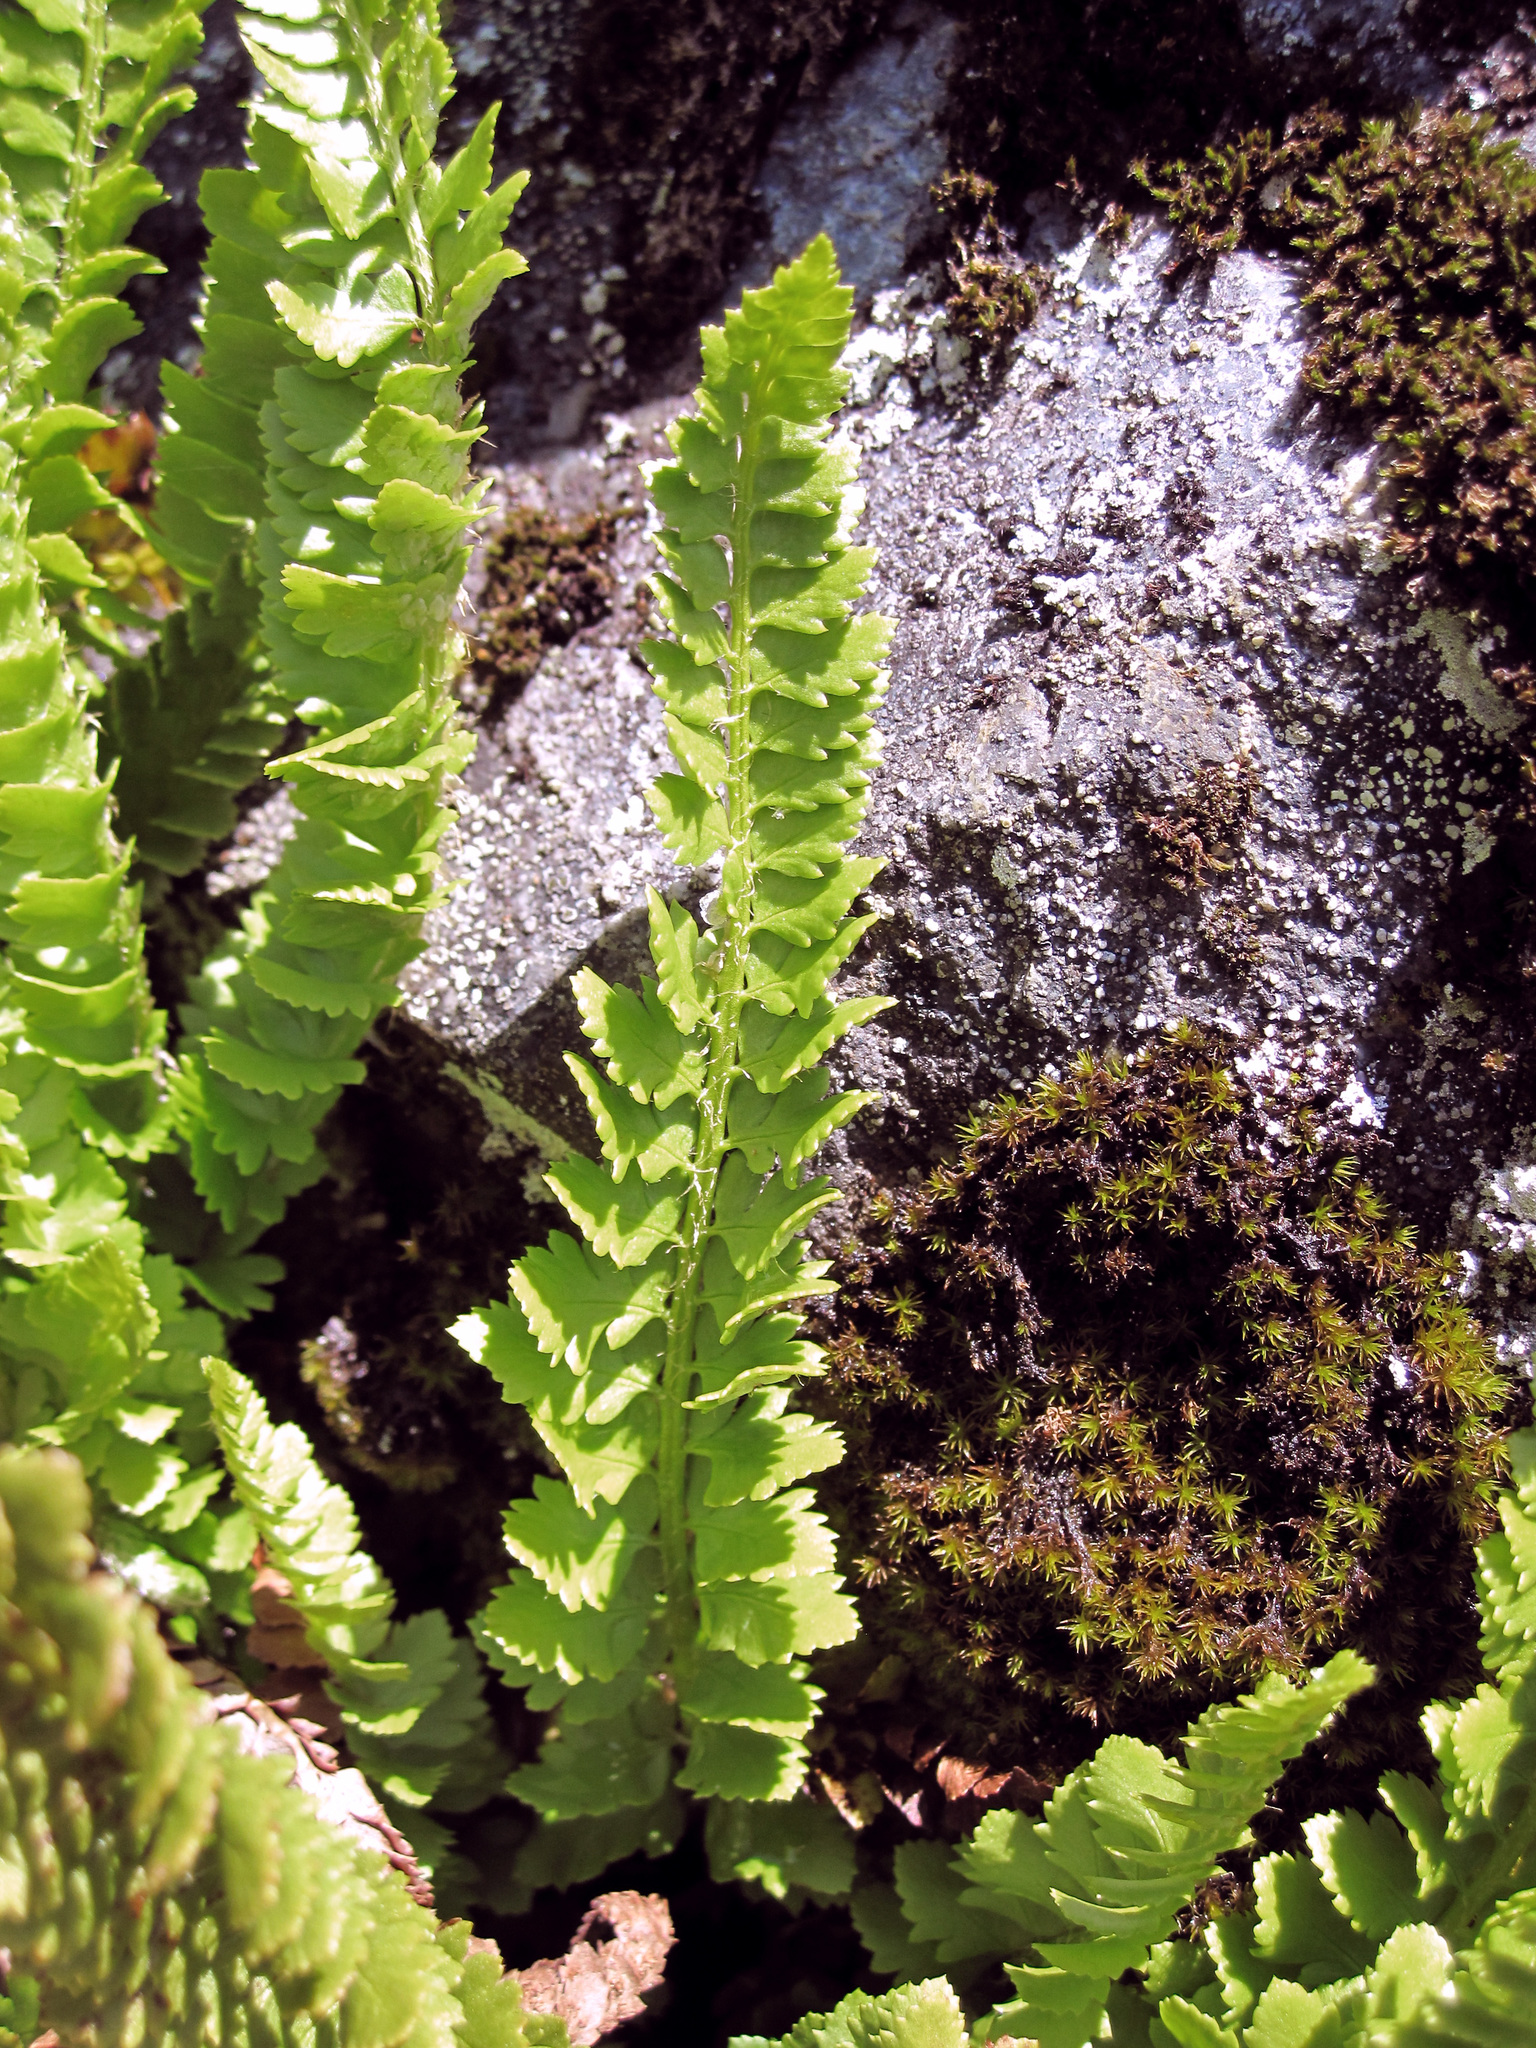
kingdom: Plantae
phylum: Tracheophyta
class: Polypodiopsida
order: Polypodiales
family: Dryopteridaceae
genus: Polystichum
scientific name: Polystichum kruckebergii
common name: Kruckeberg's holly fern
